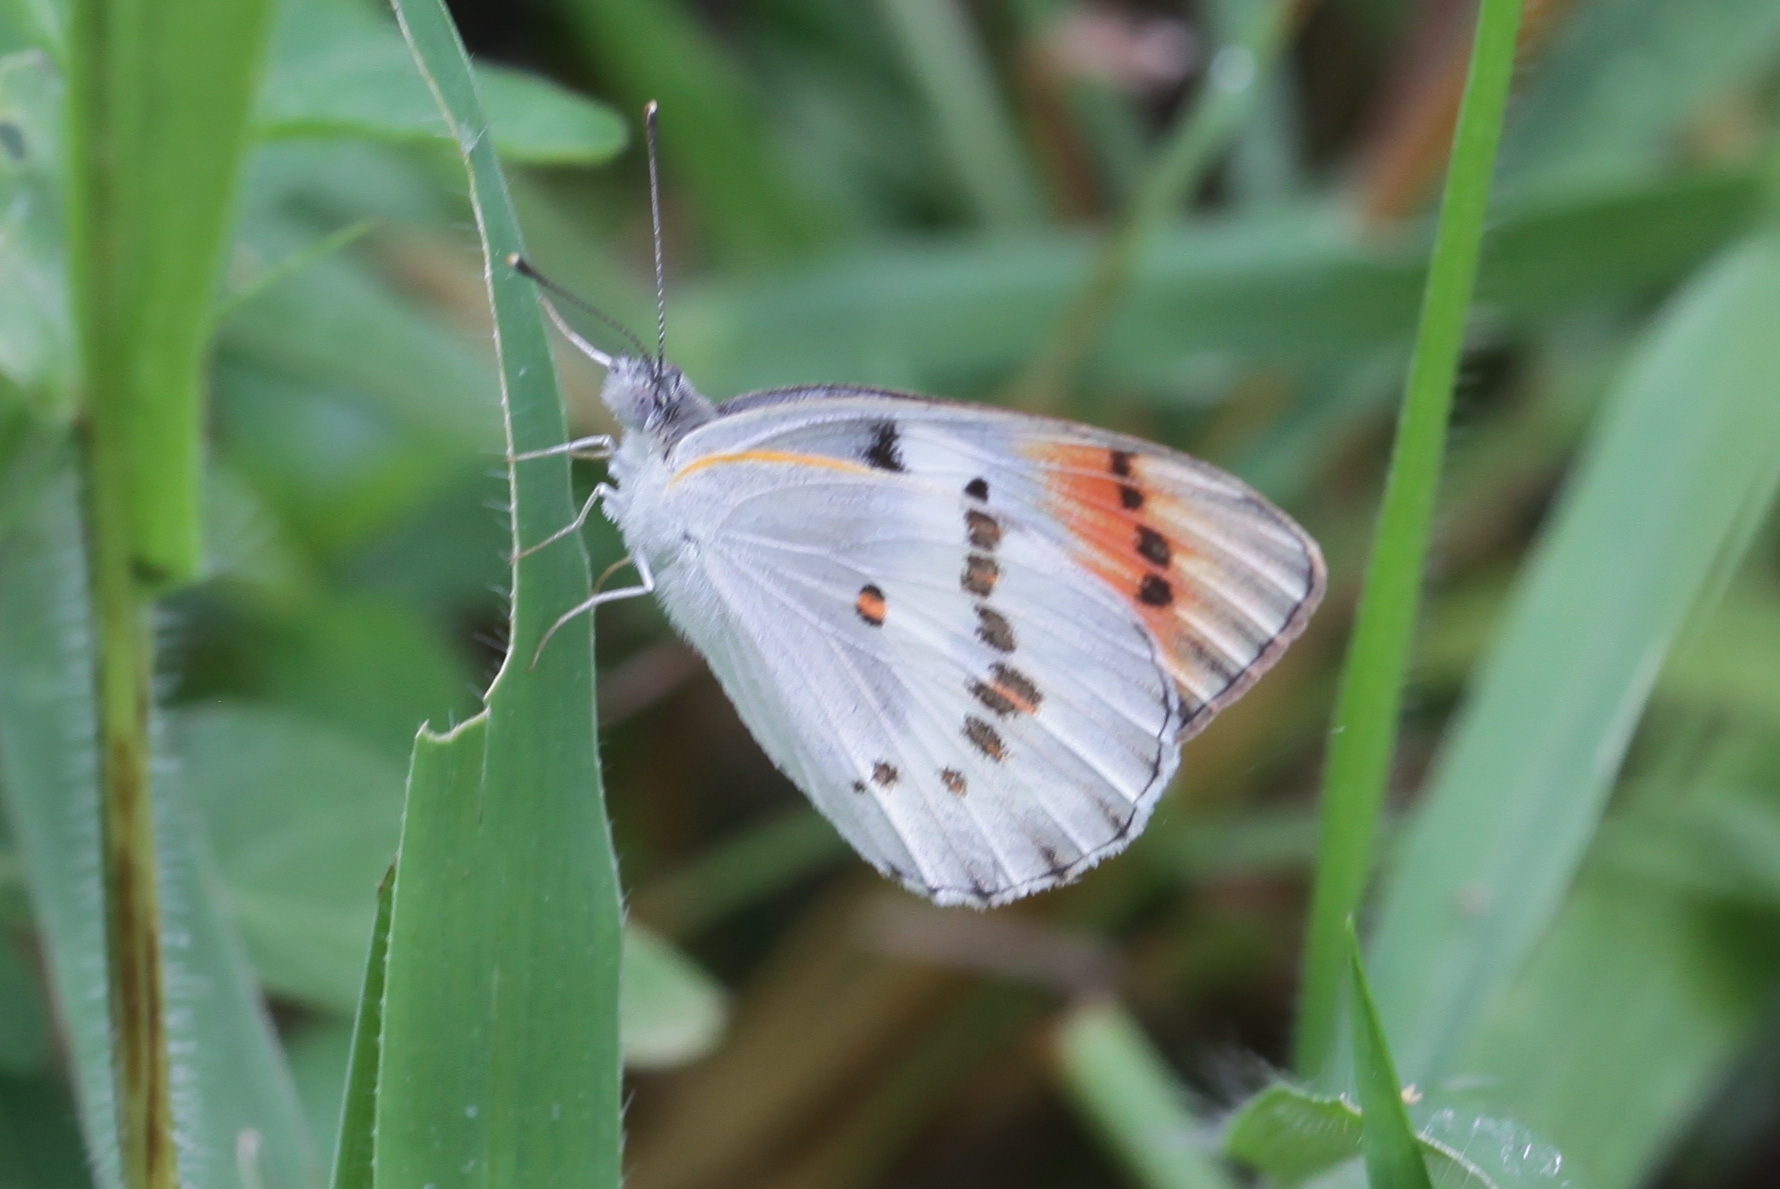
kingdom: Animalia
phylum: Arthropoda
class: Insecta
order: Lepidoptera
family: Pieridae
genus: Colotis
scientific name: Colotis annae
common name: Scarlet tip
